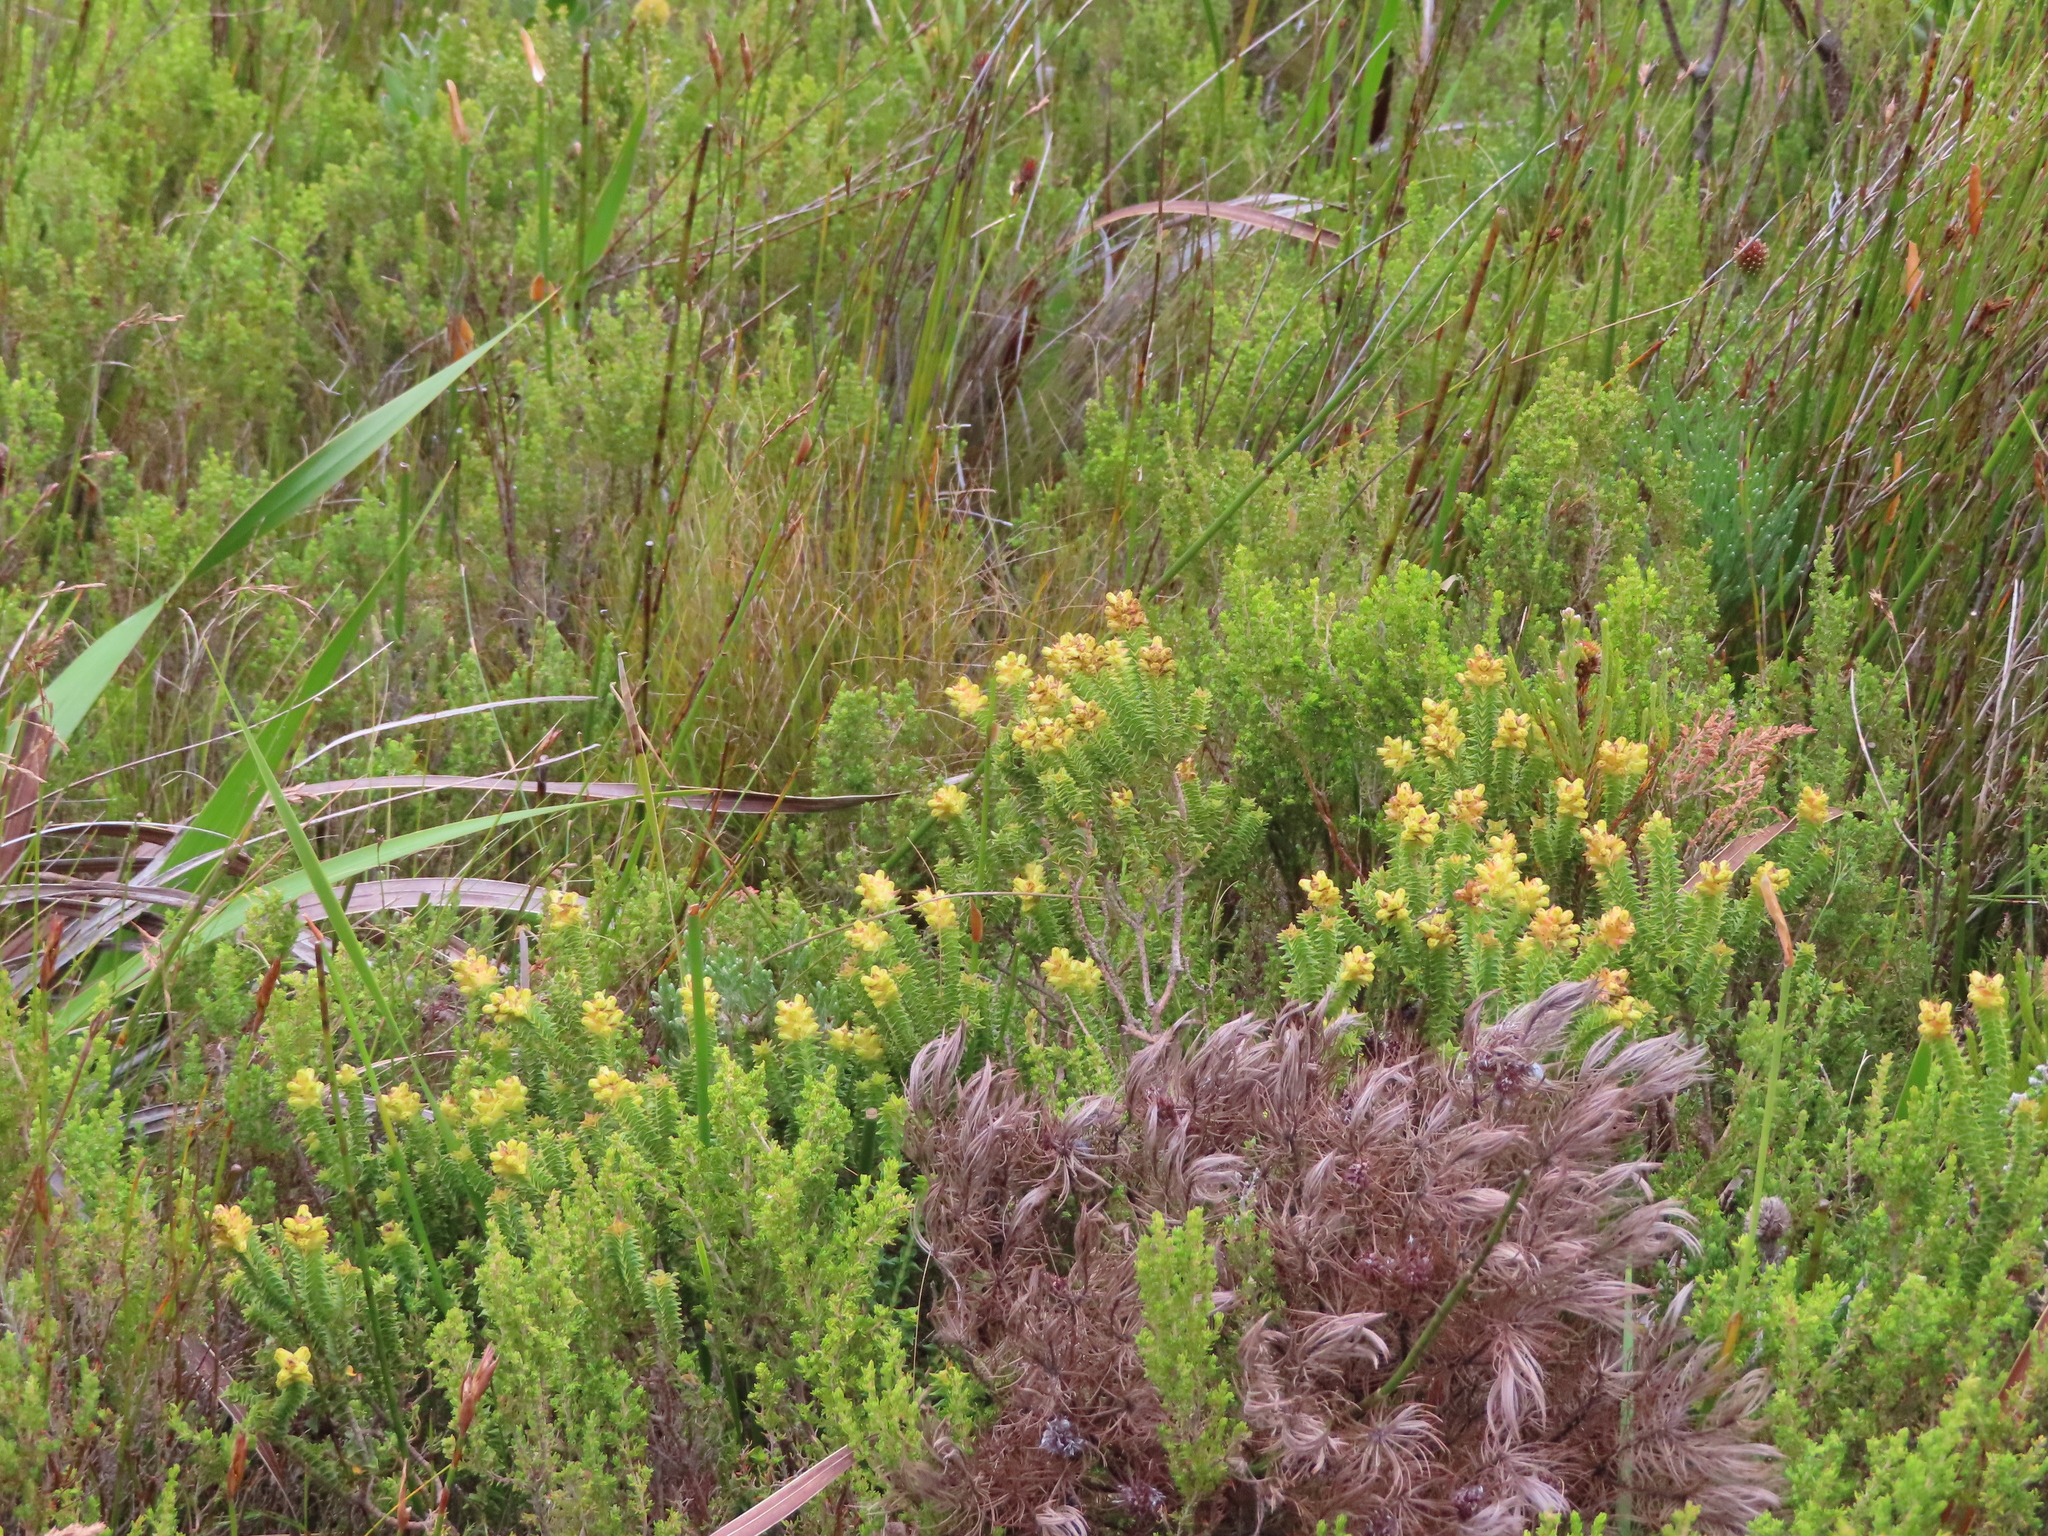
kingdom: Plantae
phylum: Tracheophyta
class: Magnoliopsida
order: Myrtales
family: Penaeaceae
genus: Penaea
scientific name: Penaea mucronata
